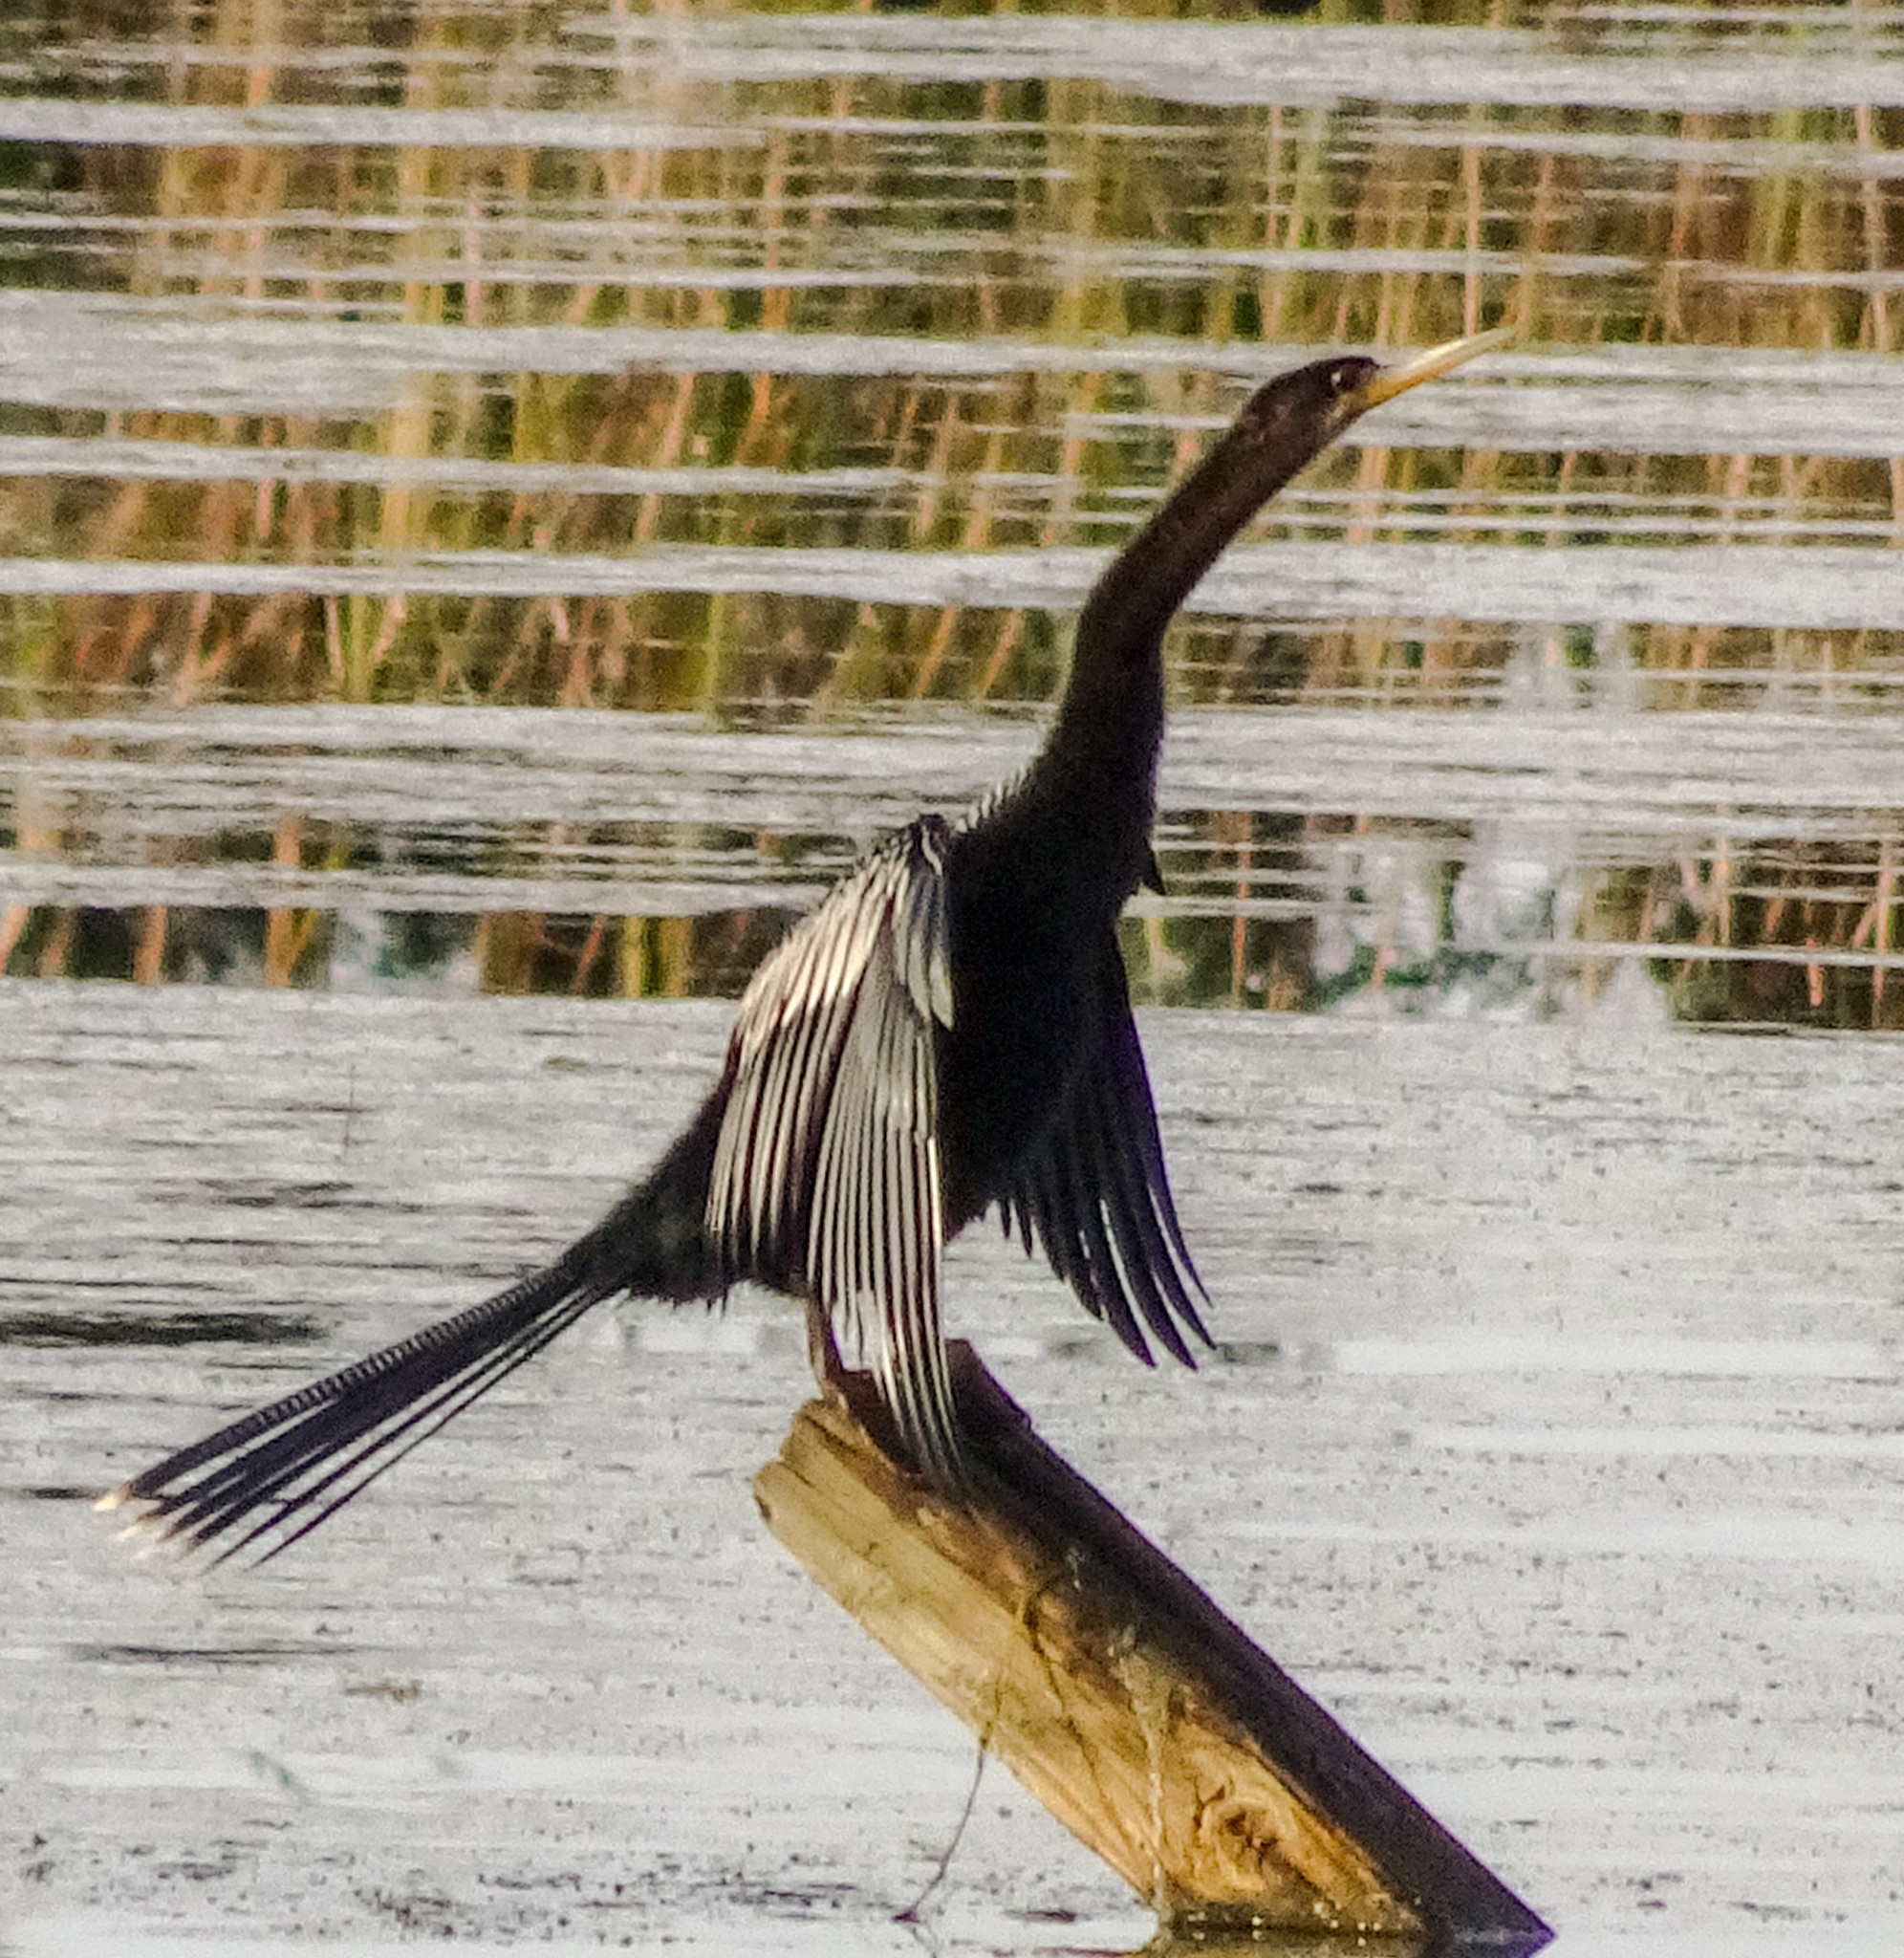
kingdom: Animalia
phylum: Chordata
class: Aves
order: Suliformes
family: Anhingidae
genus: Anhinga
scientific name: Anhinga anhinga
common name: Anhinga
